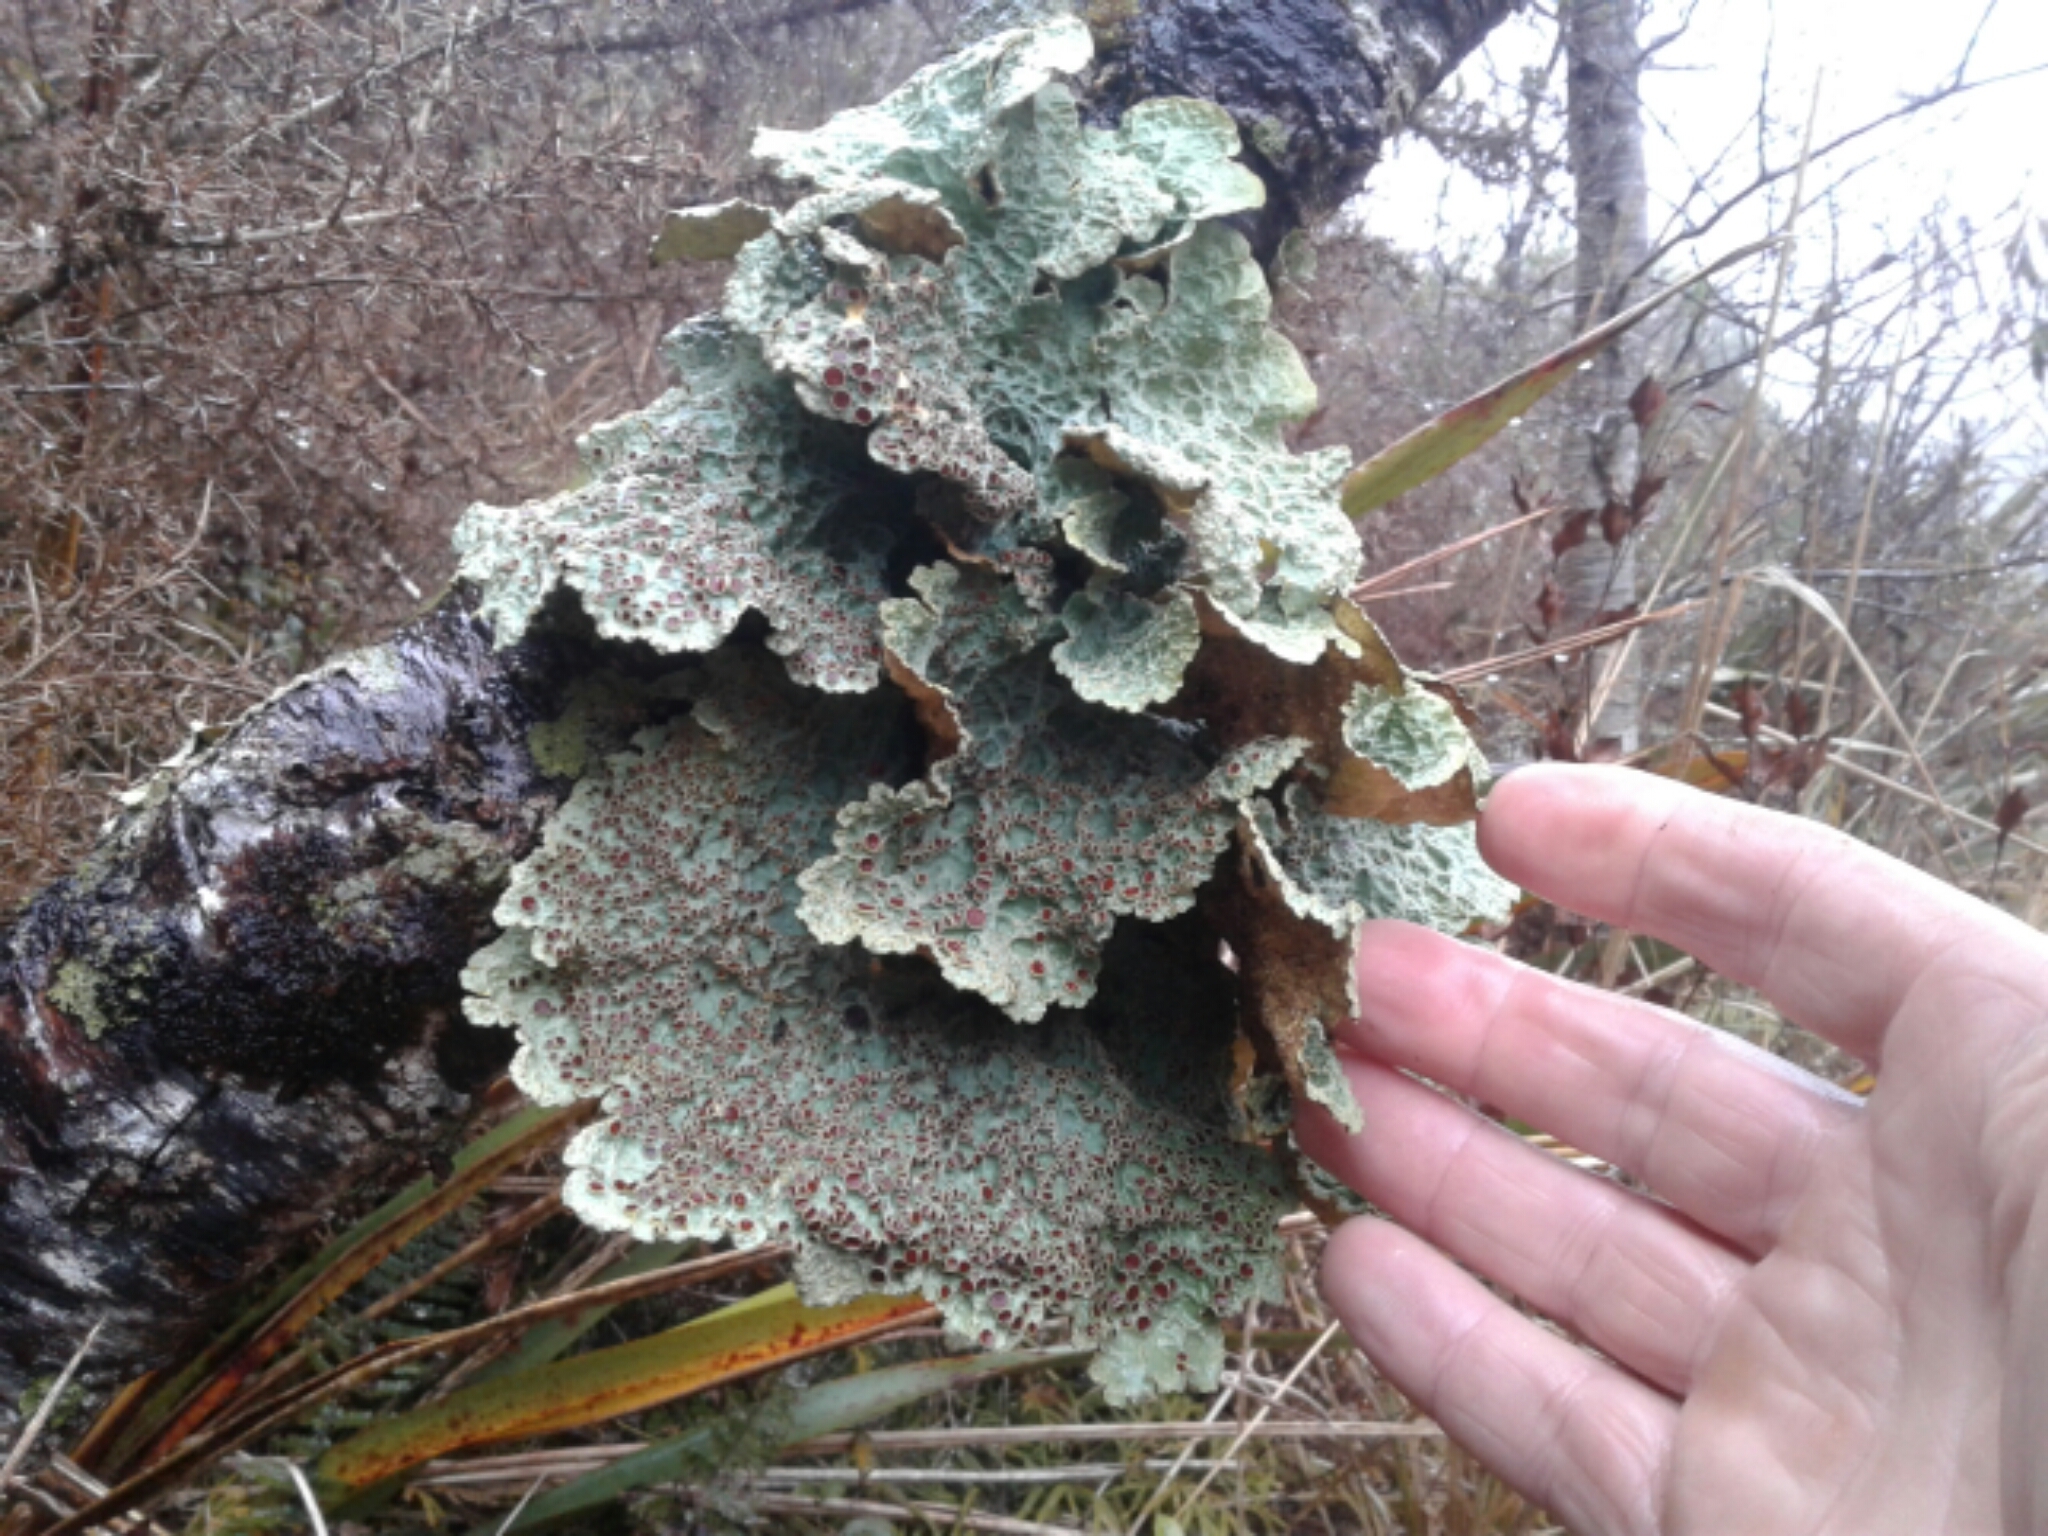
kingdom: Fungi
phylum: Ascomycota
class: Lecanoromycetes
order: Peltigerales
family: Lobariaceae
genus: Yarrumia
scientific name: Yarrumia coronata
